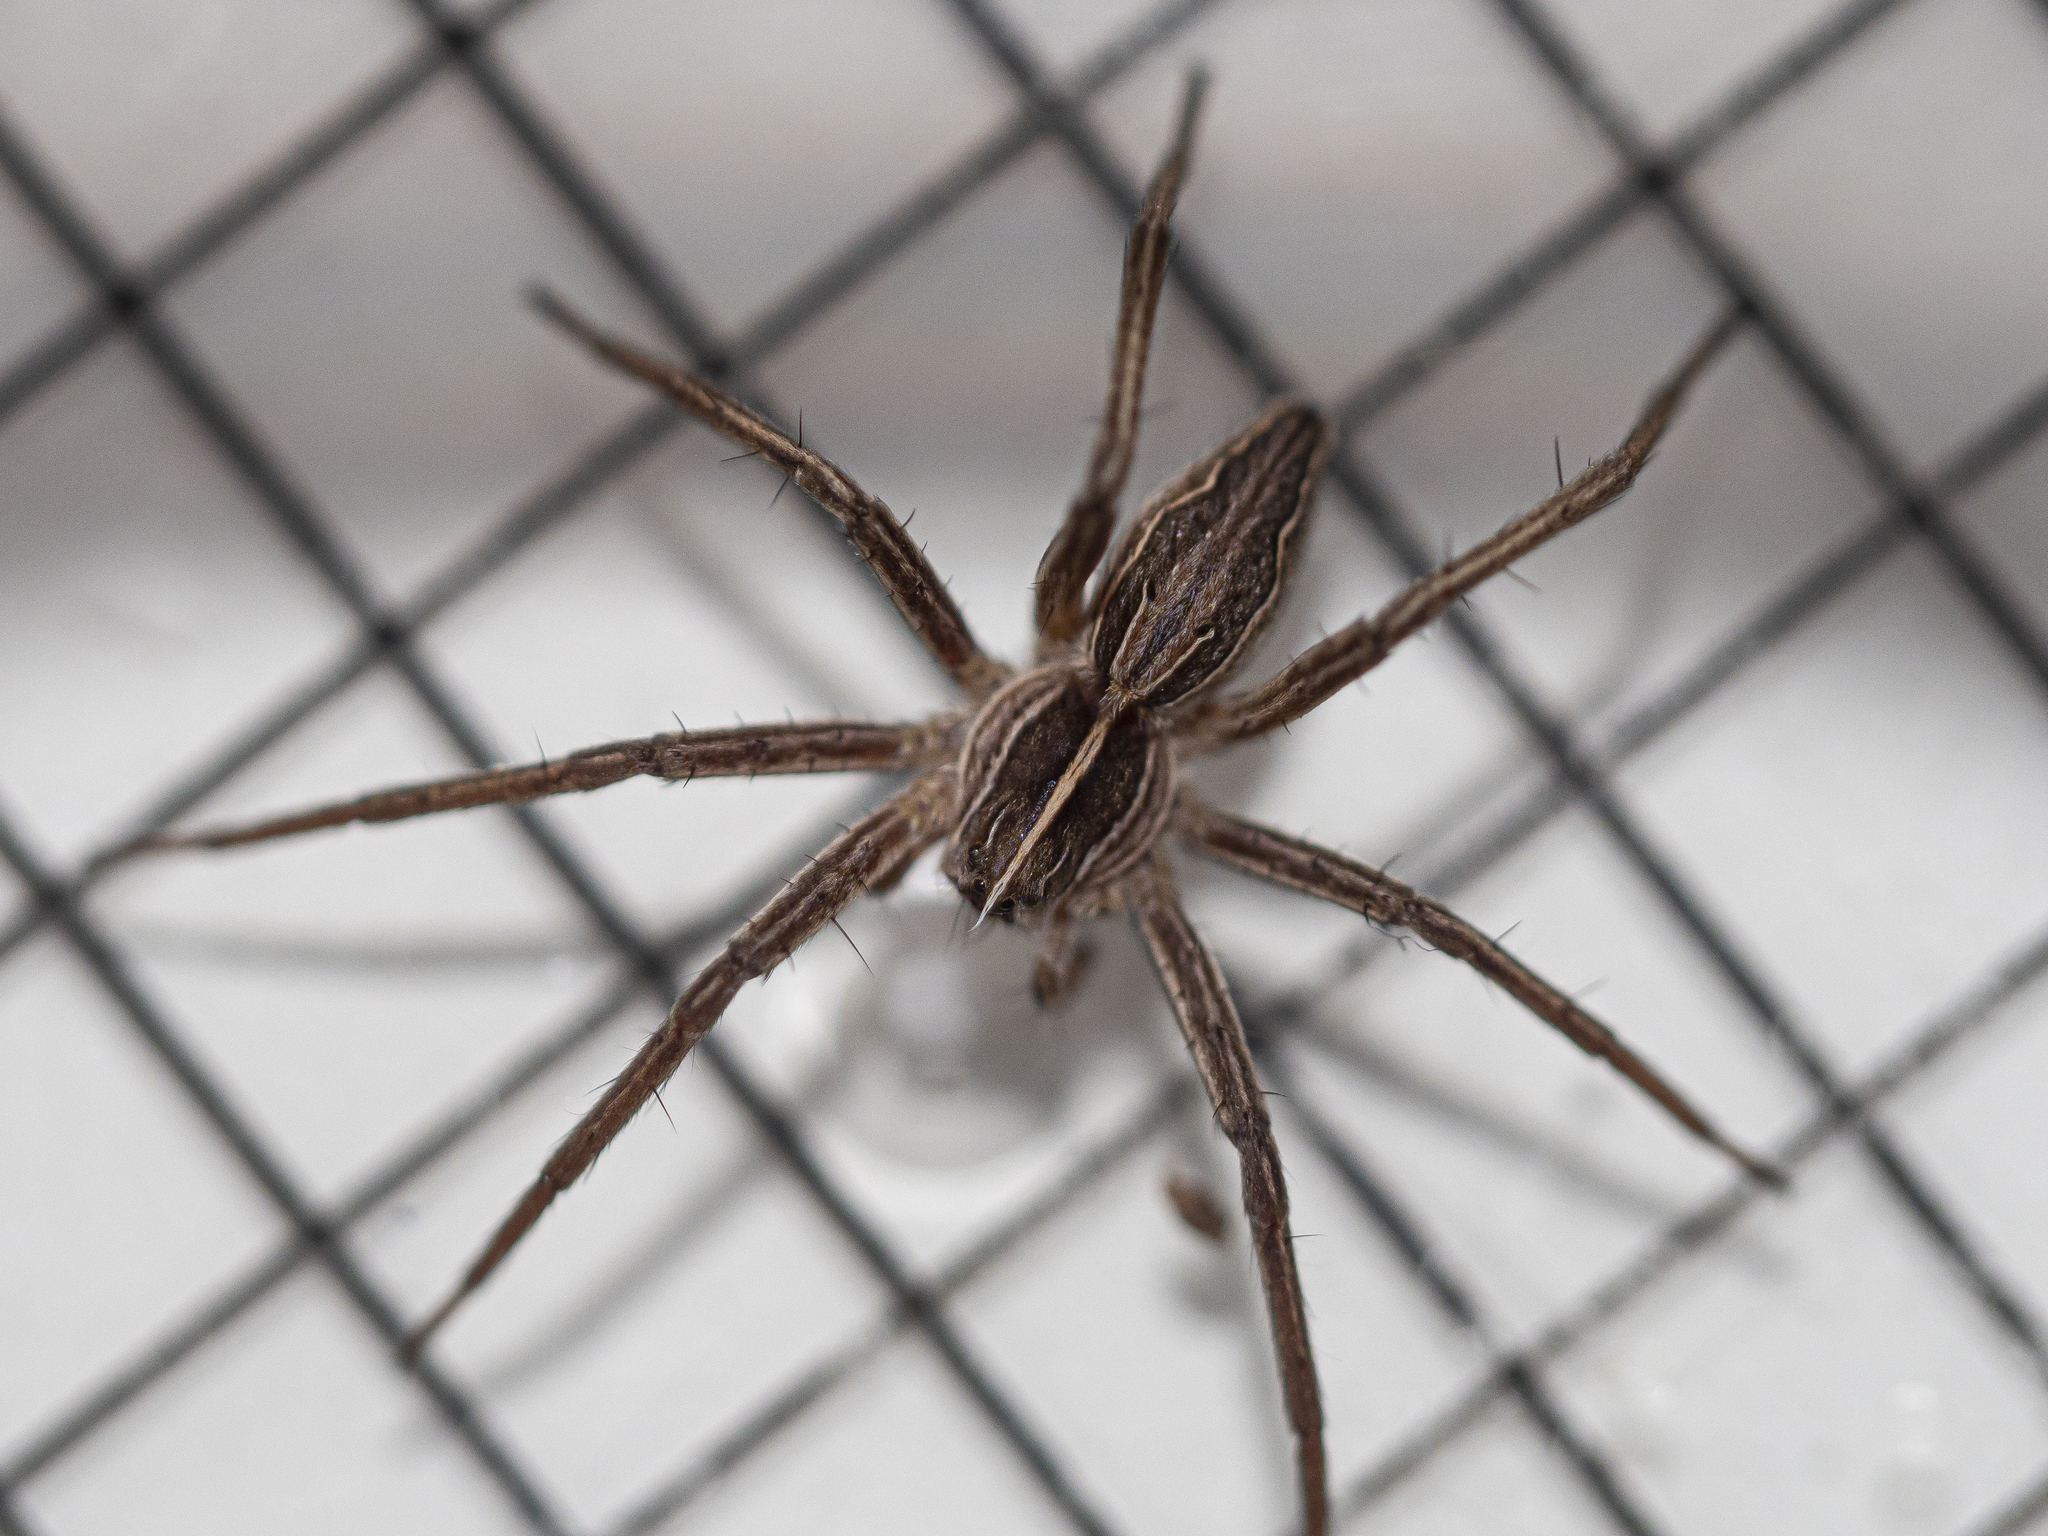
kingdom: Animalia
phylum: Arthropoda
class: Arachnida
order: Araneae
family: Pisauridae
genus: Pisaura
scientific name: Pisaura mirabilis
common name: Tent spider
